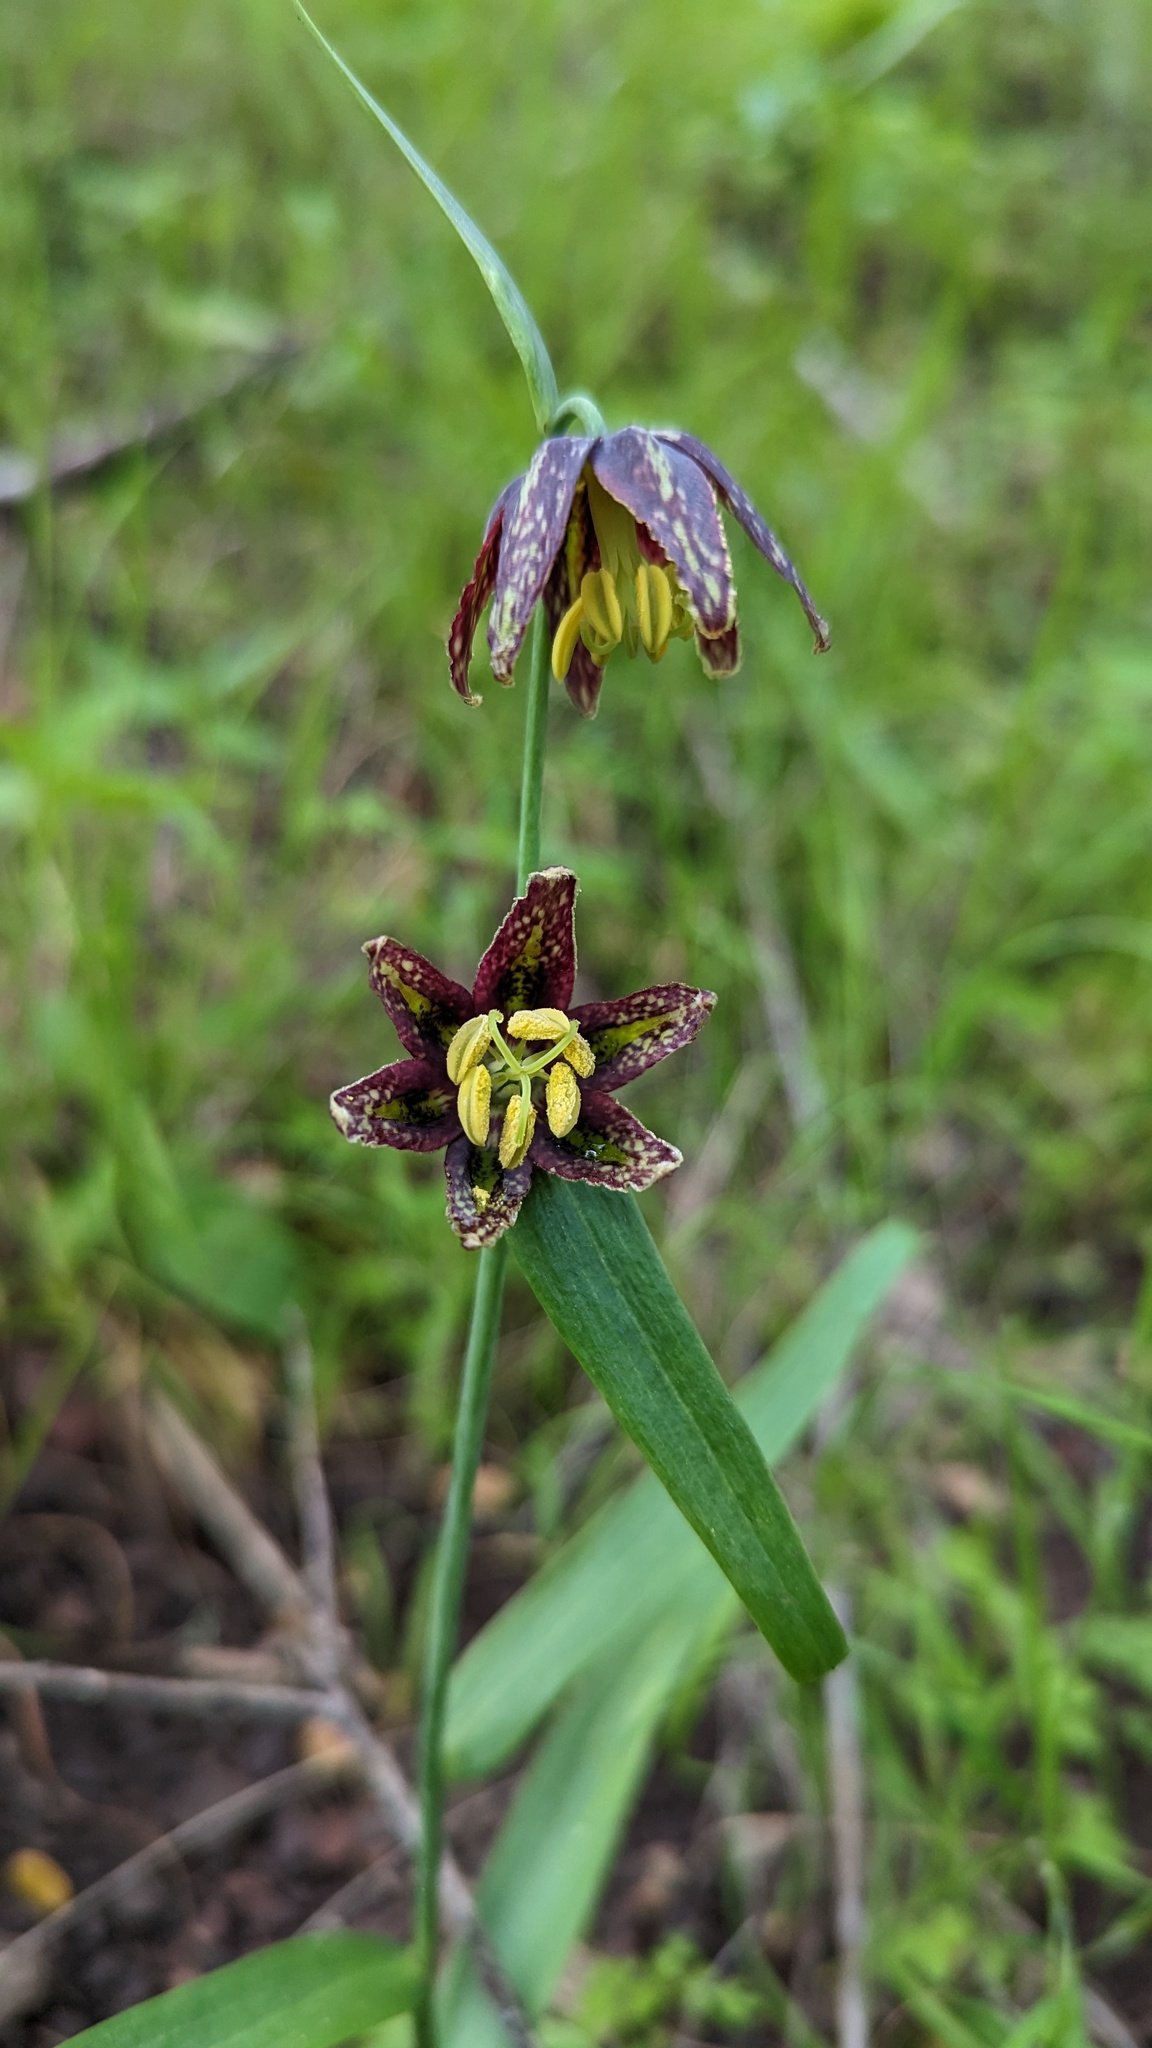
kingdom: Plantae
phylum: Tracheophyta
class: Liliopsida
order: Liliales
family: Liliaceae
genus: Fritillaria
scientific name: Fritillaria affinis
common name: Ojai fritillary
